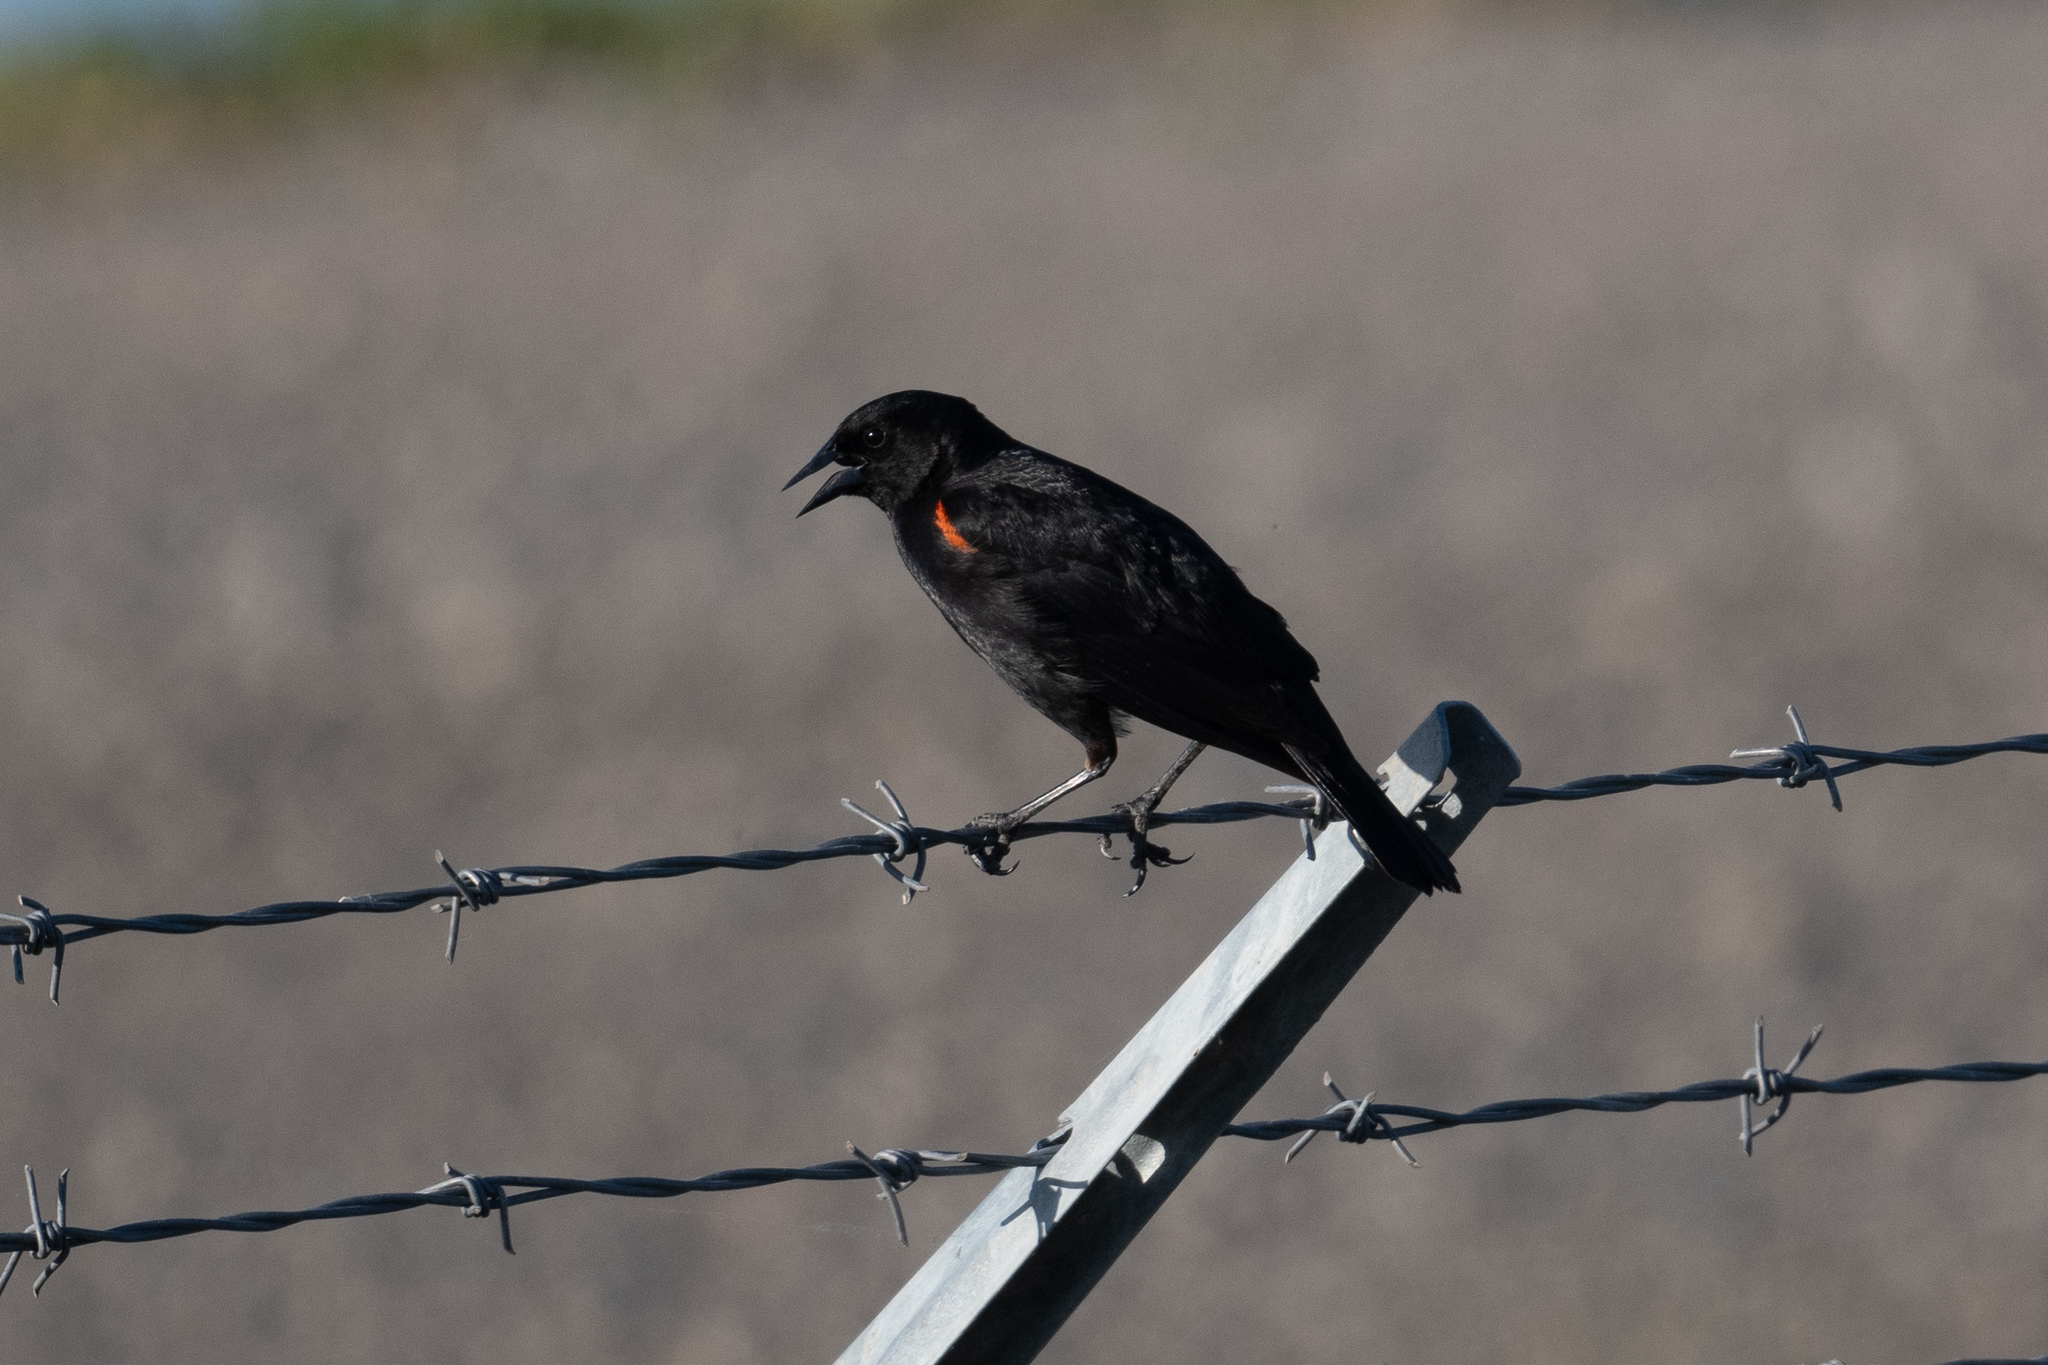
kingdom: Animalia
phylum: Chordata
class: Aves
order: Passeriformes
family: Icteridae
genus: Agelaius
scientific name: Agelaius phoeniceus
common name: Red-winged blackbird
